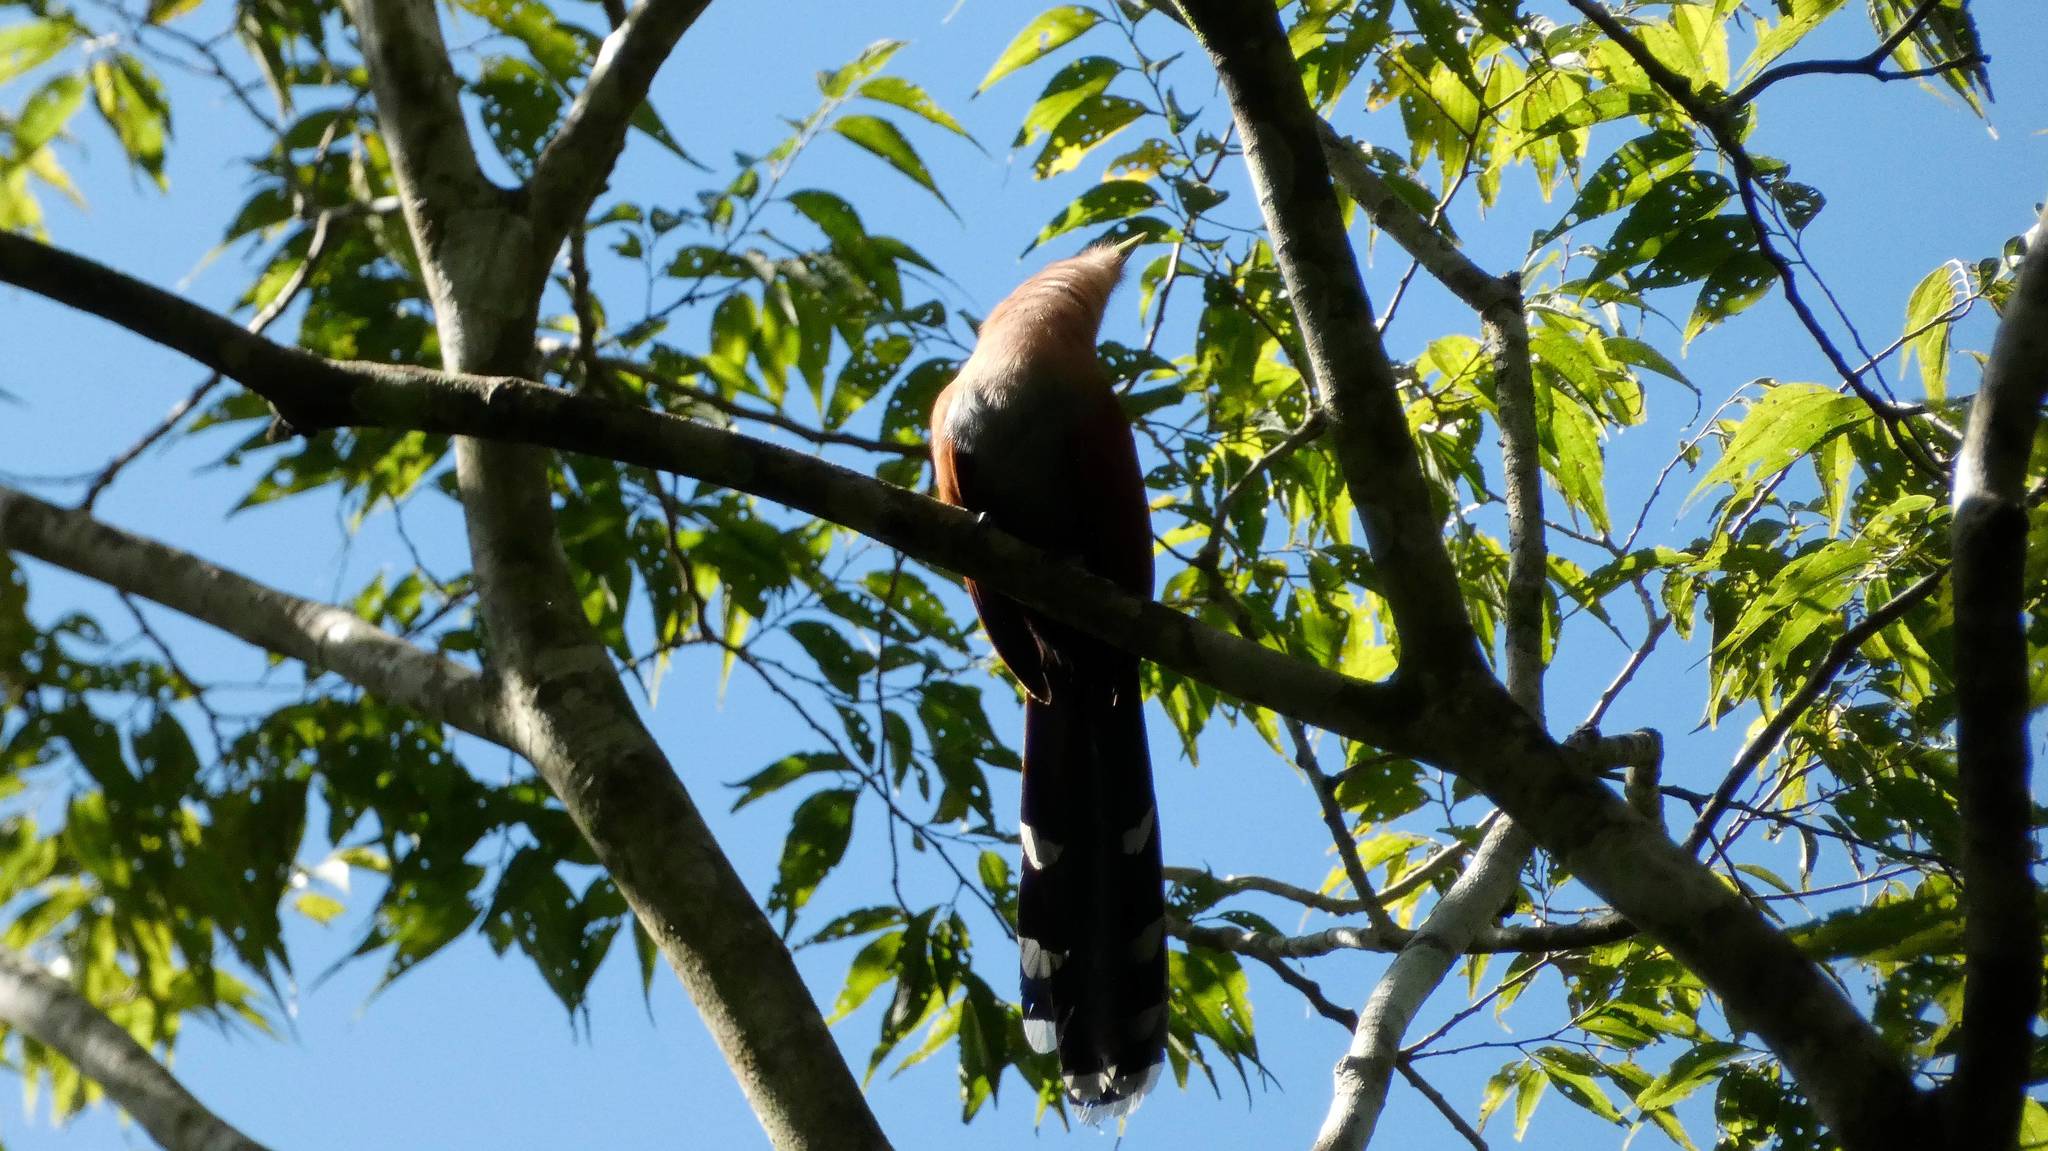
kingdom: Animalia
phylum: Chordata
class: Aves
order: Cuculiformes
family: Cuculidae
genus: Piaya
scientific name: Piaya cayana
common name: Squirrel cuckoo
